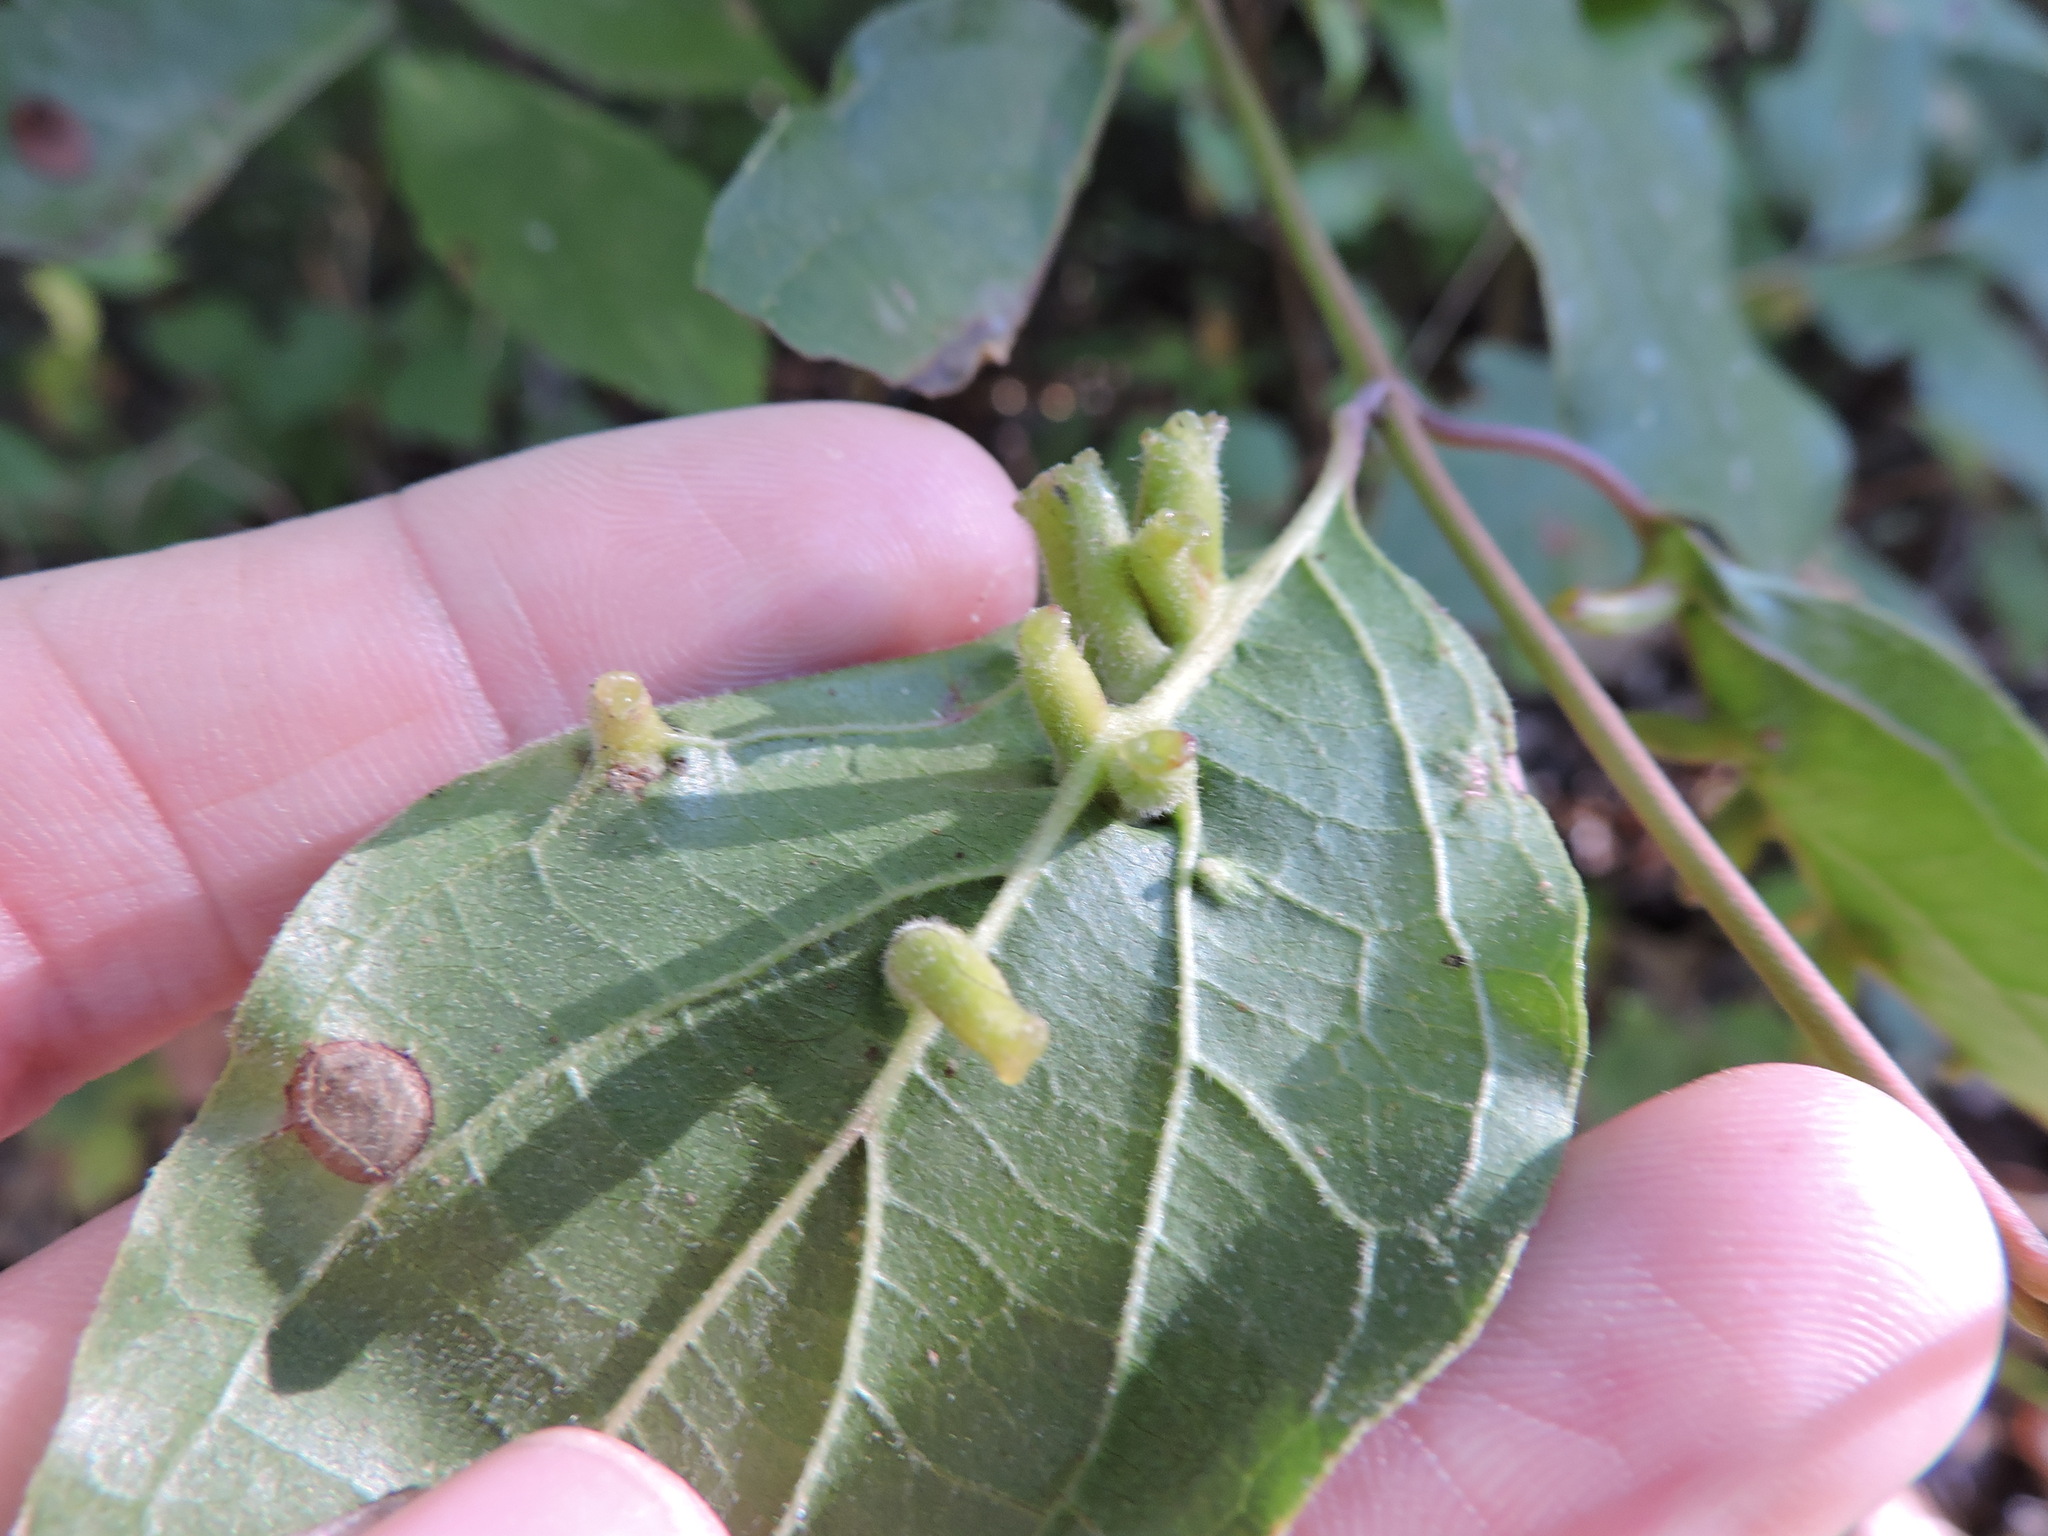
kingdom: Animalia
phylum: Arthropoda
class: Insecta
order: Diptera
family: Cecidomyiidae
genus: Dasineura
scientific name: Dasineura tuba
